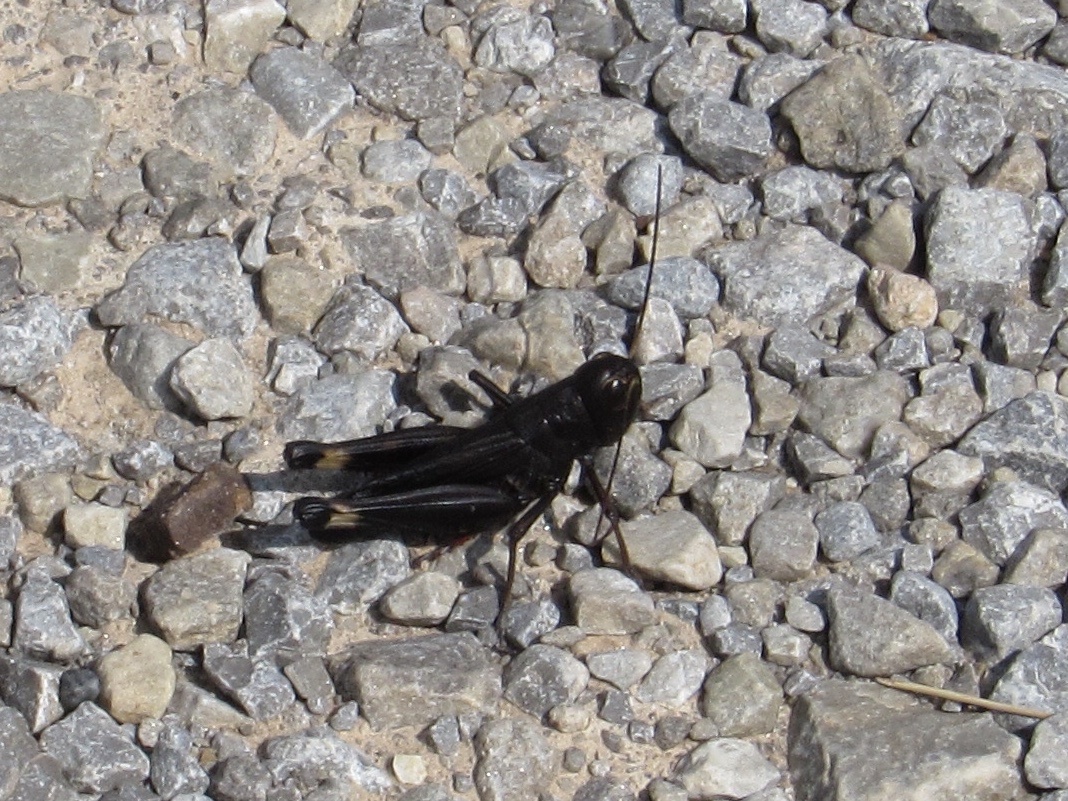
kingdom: Animalia
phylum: Arthropoda
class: Insecta
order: Orthoptera
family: Acrididae
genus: Boopedon
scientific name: Boopedon nubilum
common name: Ebony grasshopper
